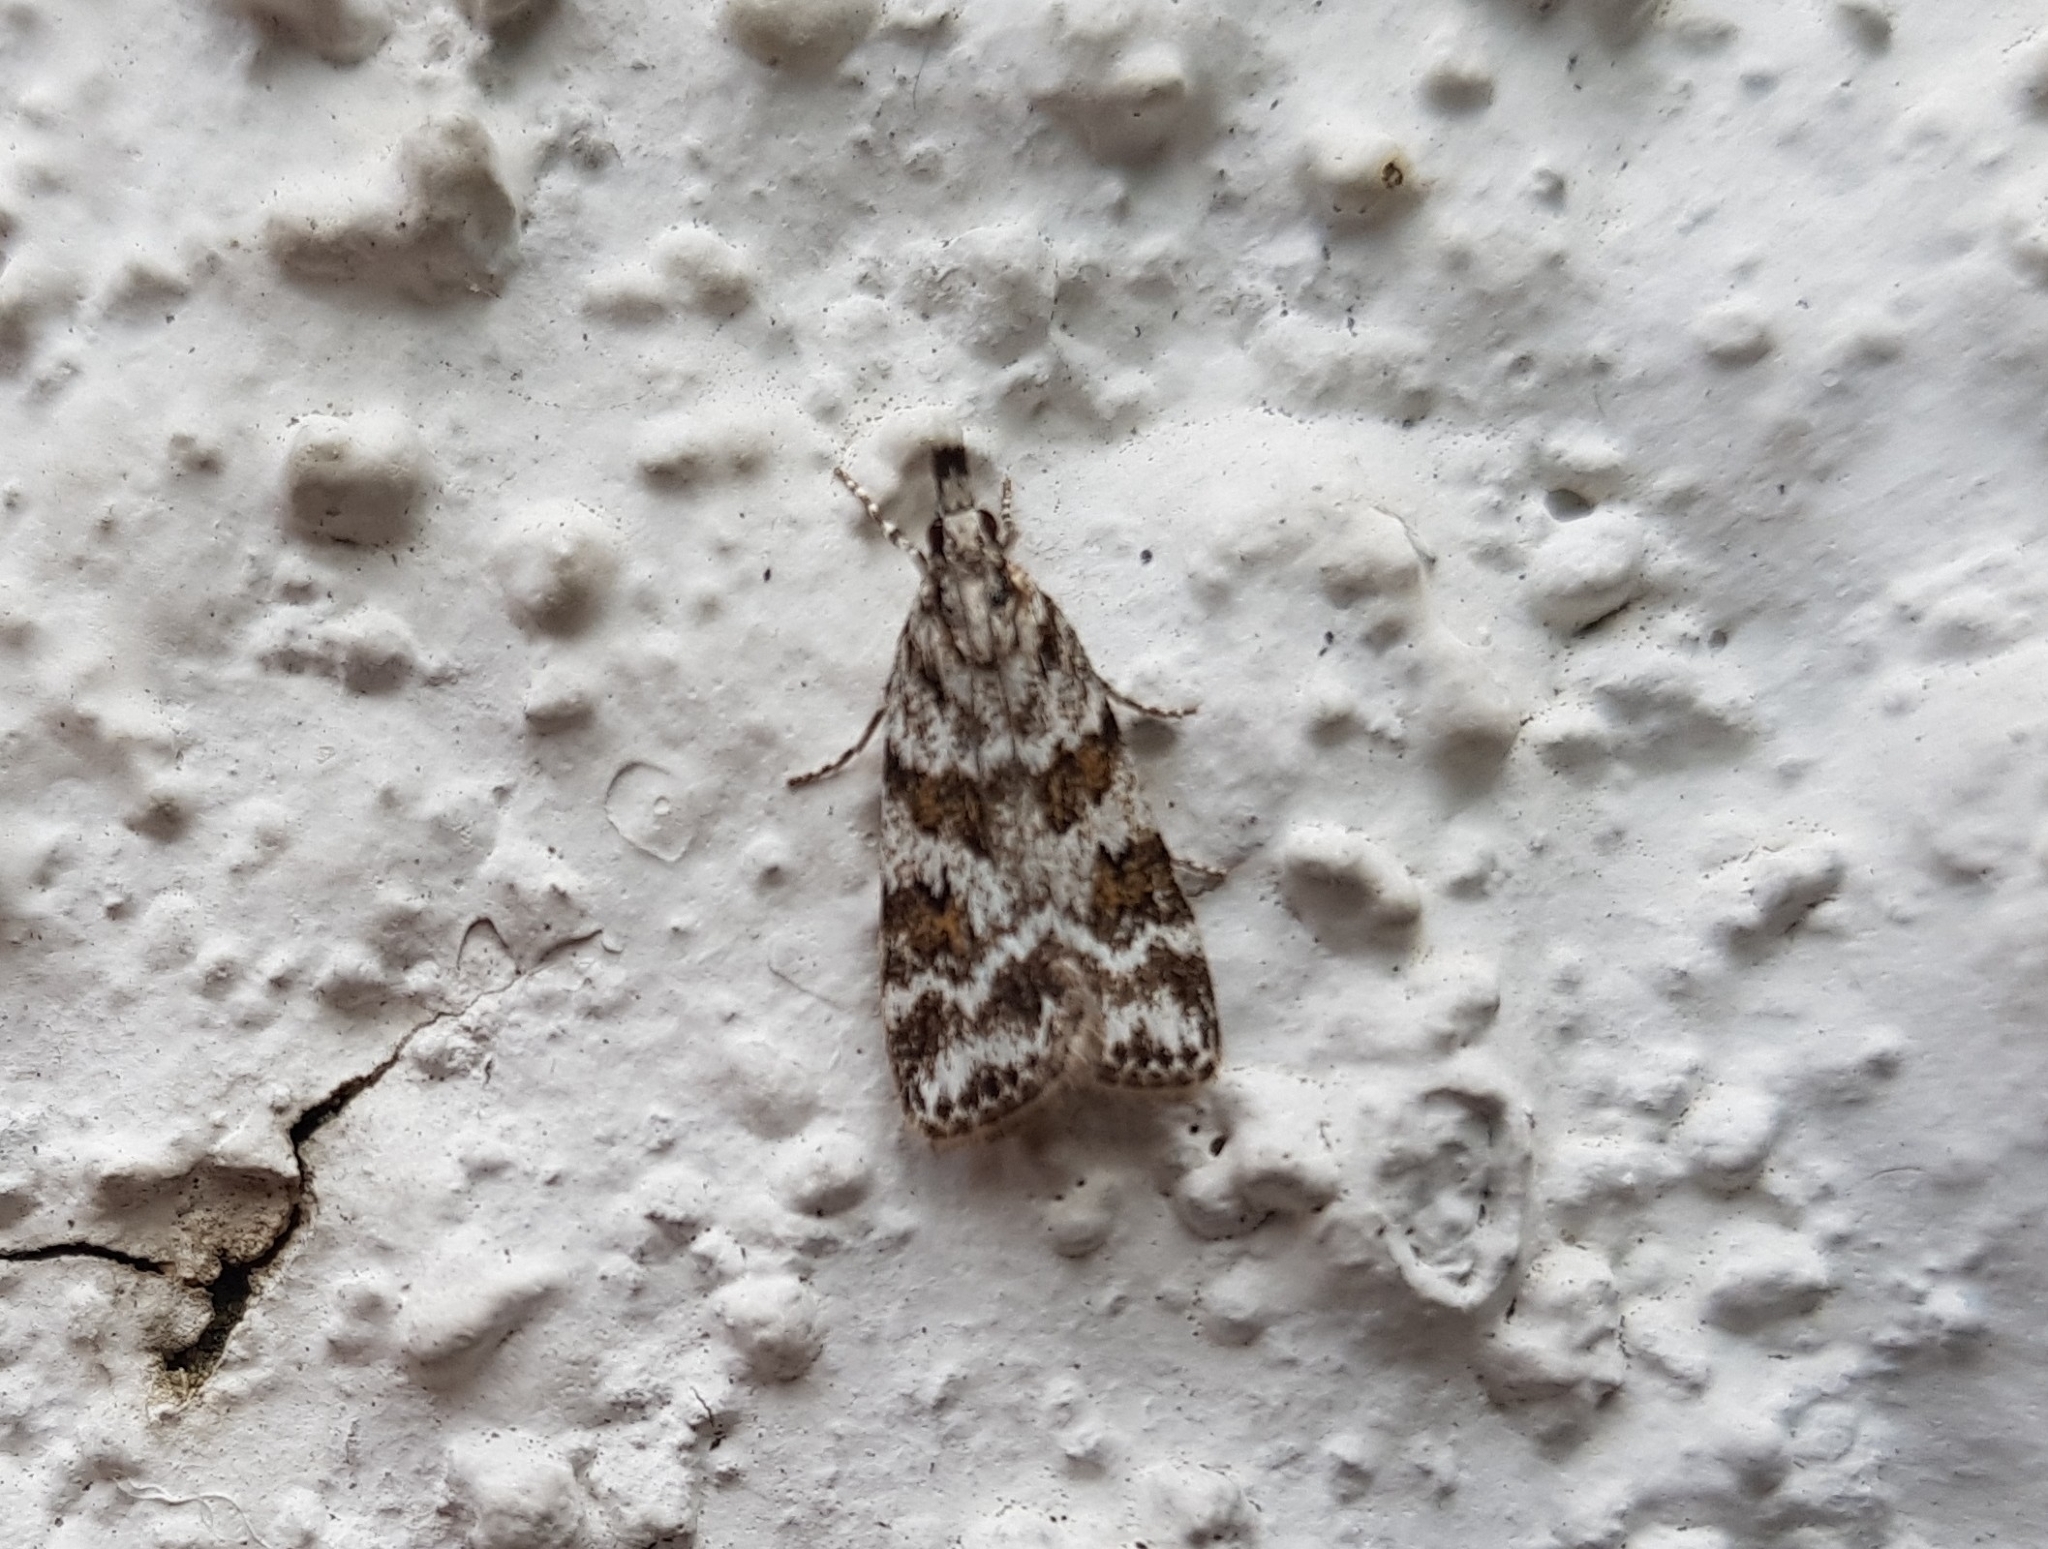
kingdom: Animalia
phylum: Arthropoda
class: Insecta
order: Lepidoptera
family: Crambidae
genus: Scoparia
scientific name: Scoparia pyralella
